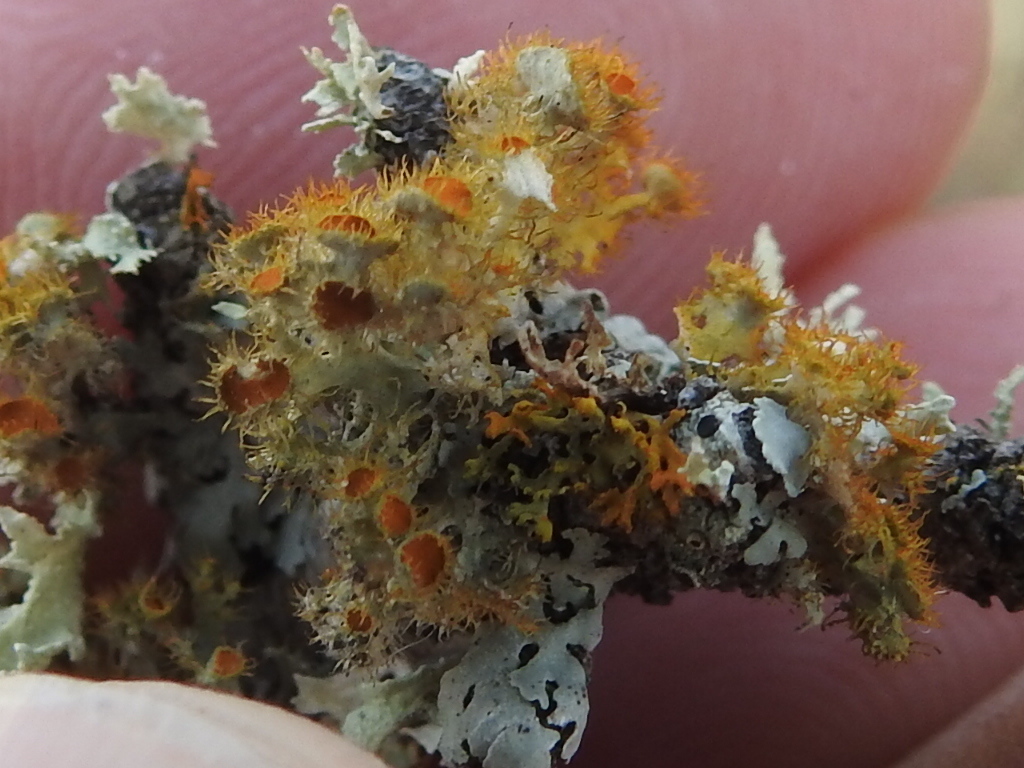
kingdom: Fungi
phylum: Ascomycota
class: Lecanoromycetes
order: Teloschistales
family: Teloschistaceae
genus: Niorma
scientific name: Niorma chrysophthalma
